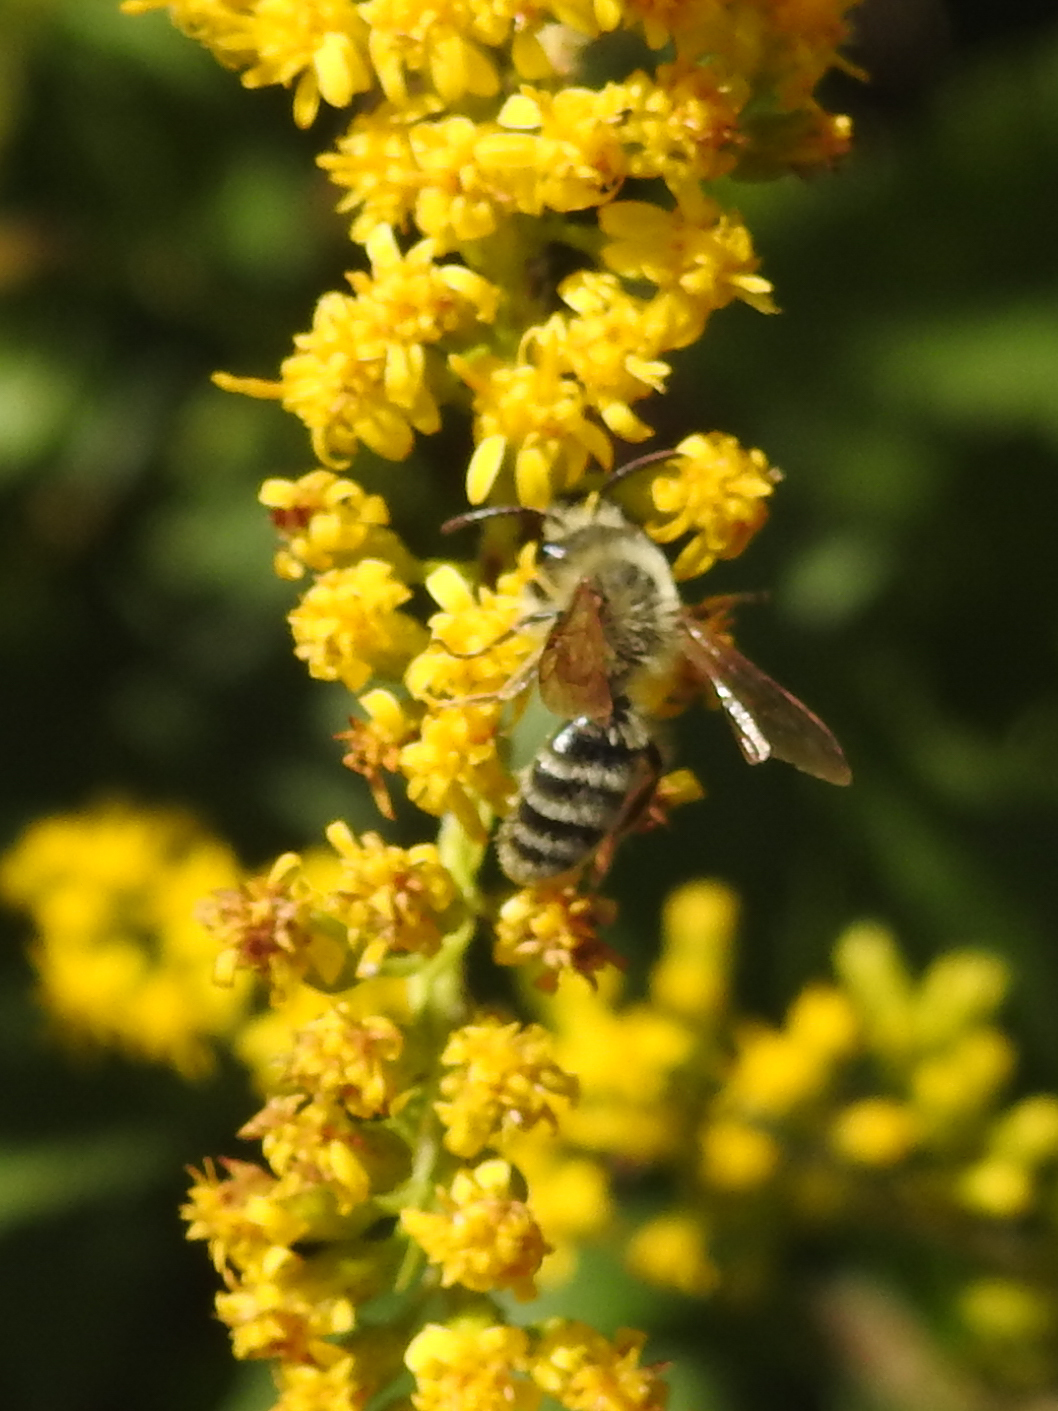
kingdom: Animalia
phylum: Arthropoda
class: Insecta
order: Hymenoptera
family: Andrenidae
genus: Andrena
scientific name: Andrena hirticincta
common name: Hairy-banded mining bee
